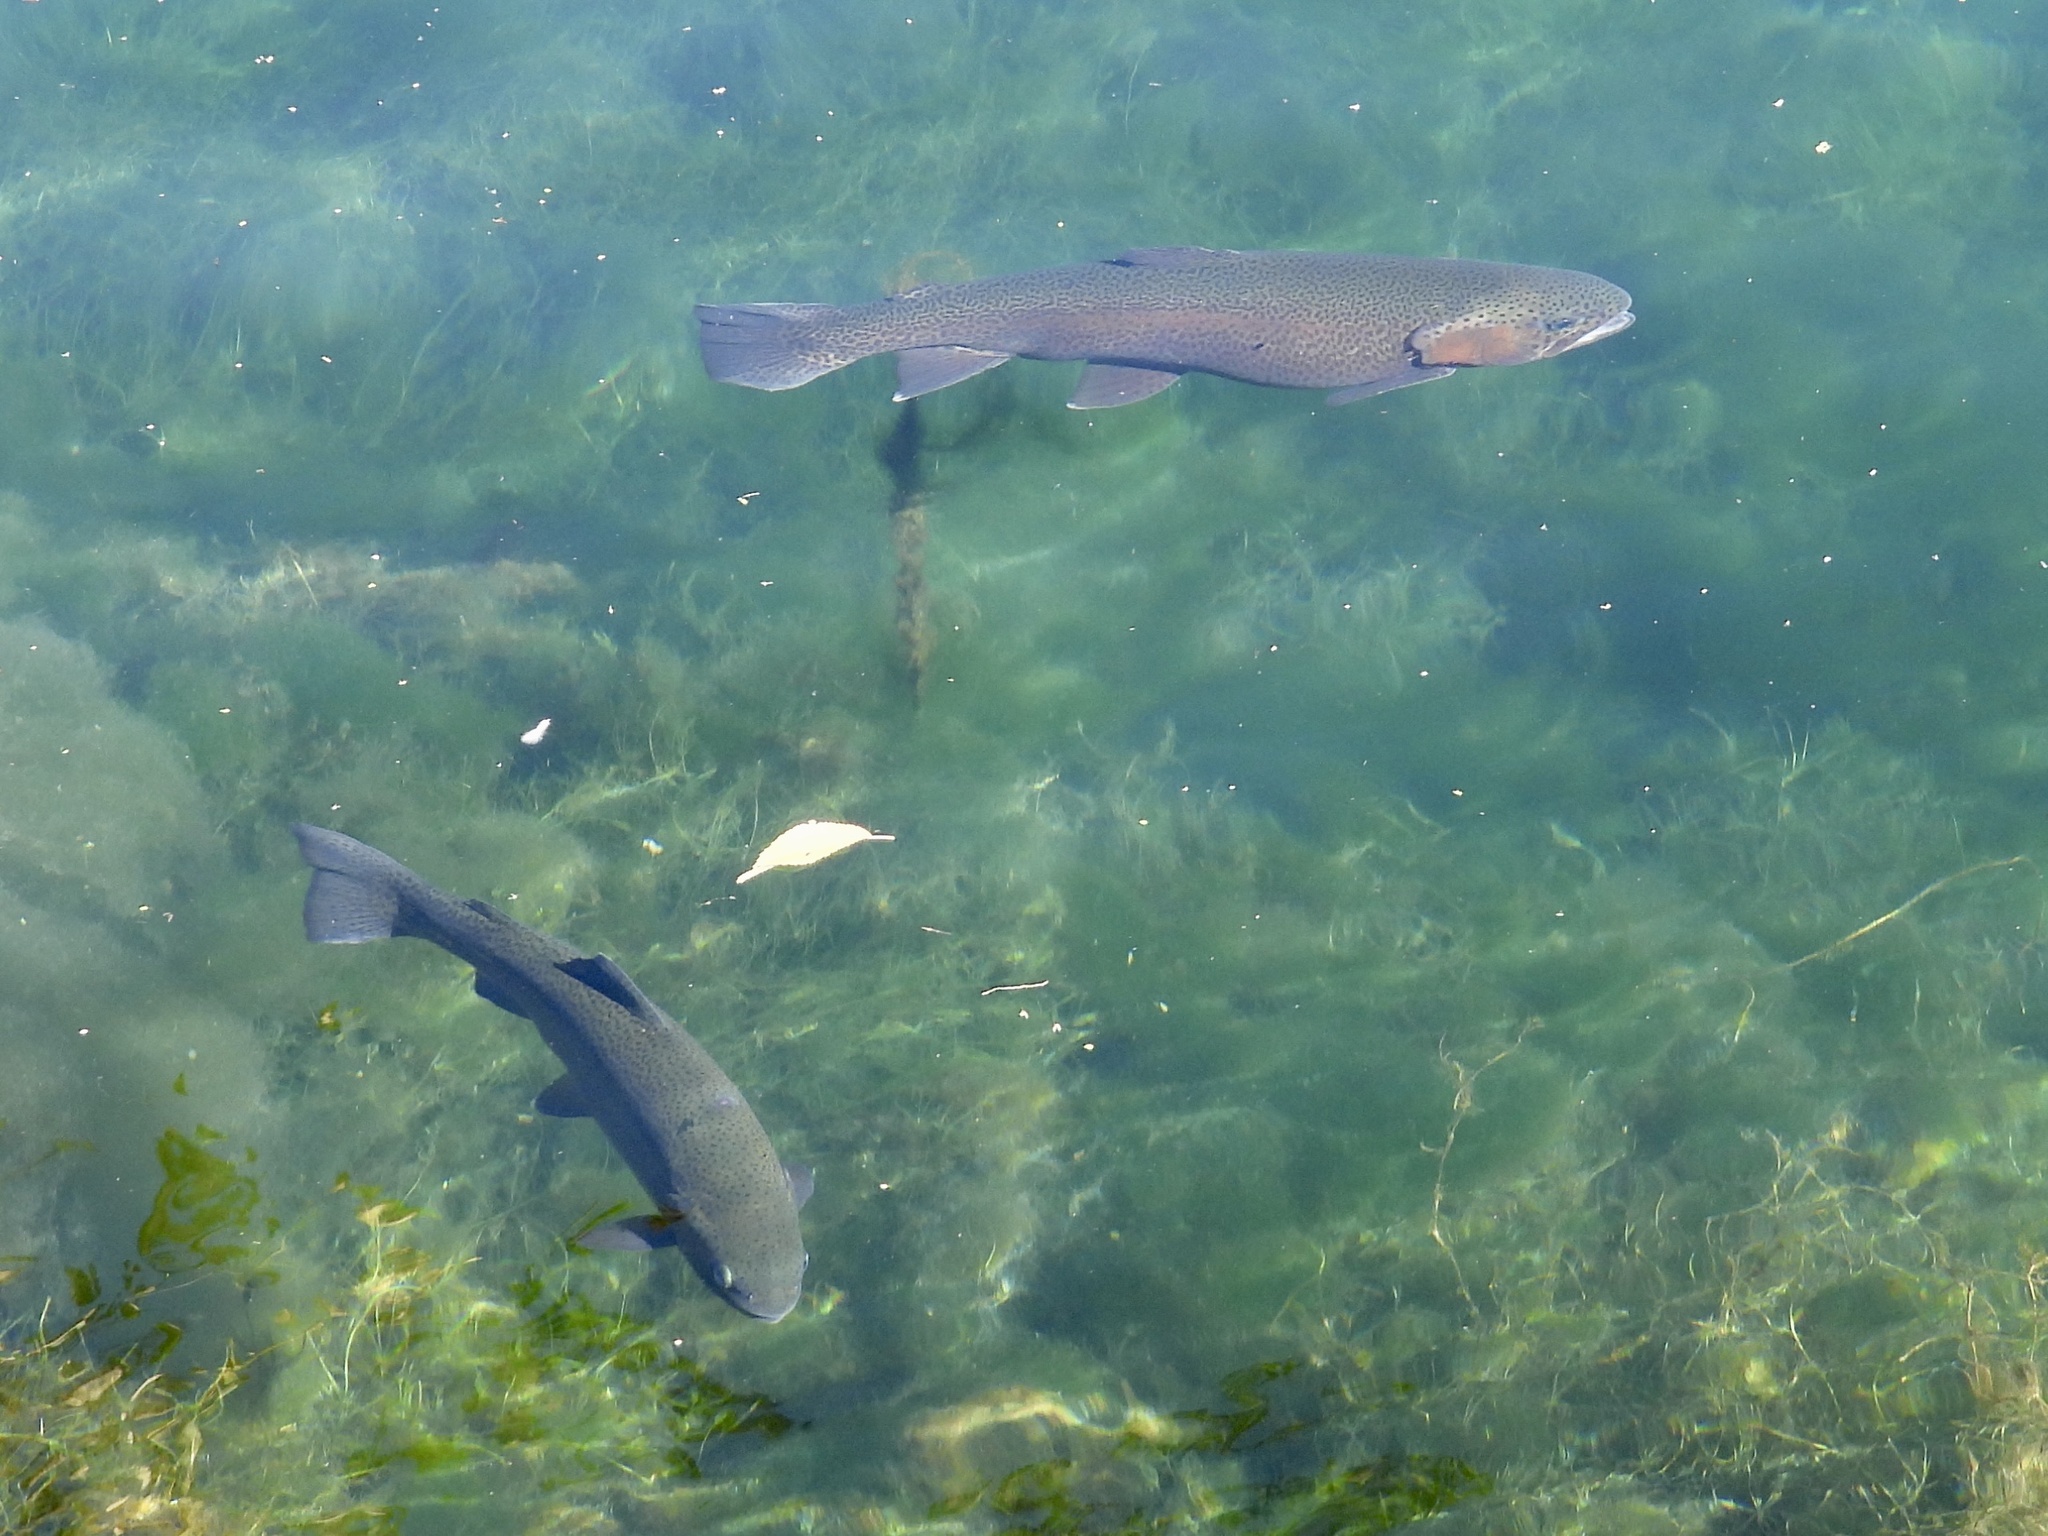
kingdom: Animalia
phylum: Chordata
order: Salmoniformes
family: Salmonidae
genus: Oncorhynchus
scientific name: Oncorhynchus mykiss
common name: Rainbow trout
